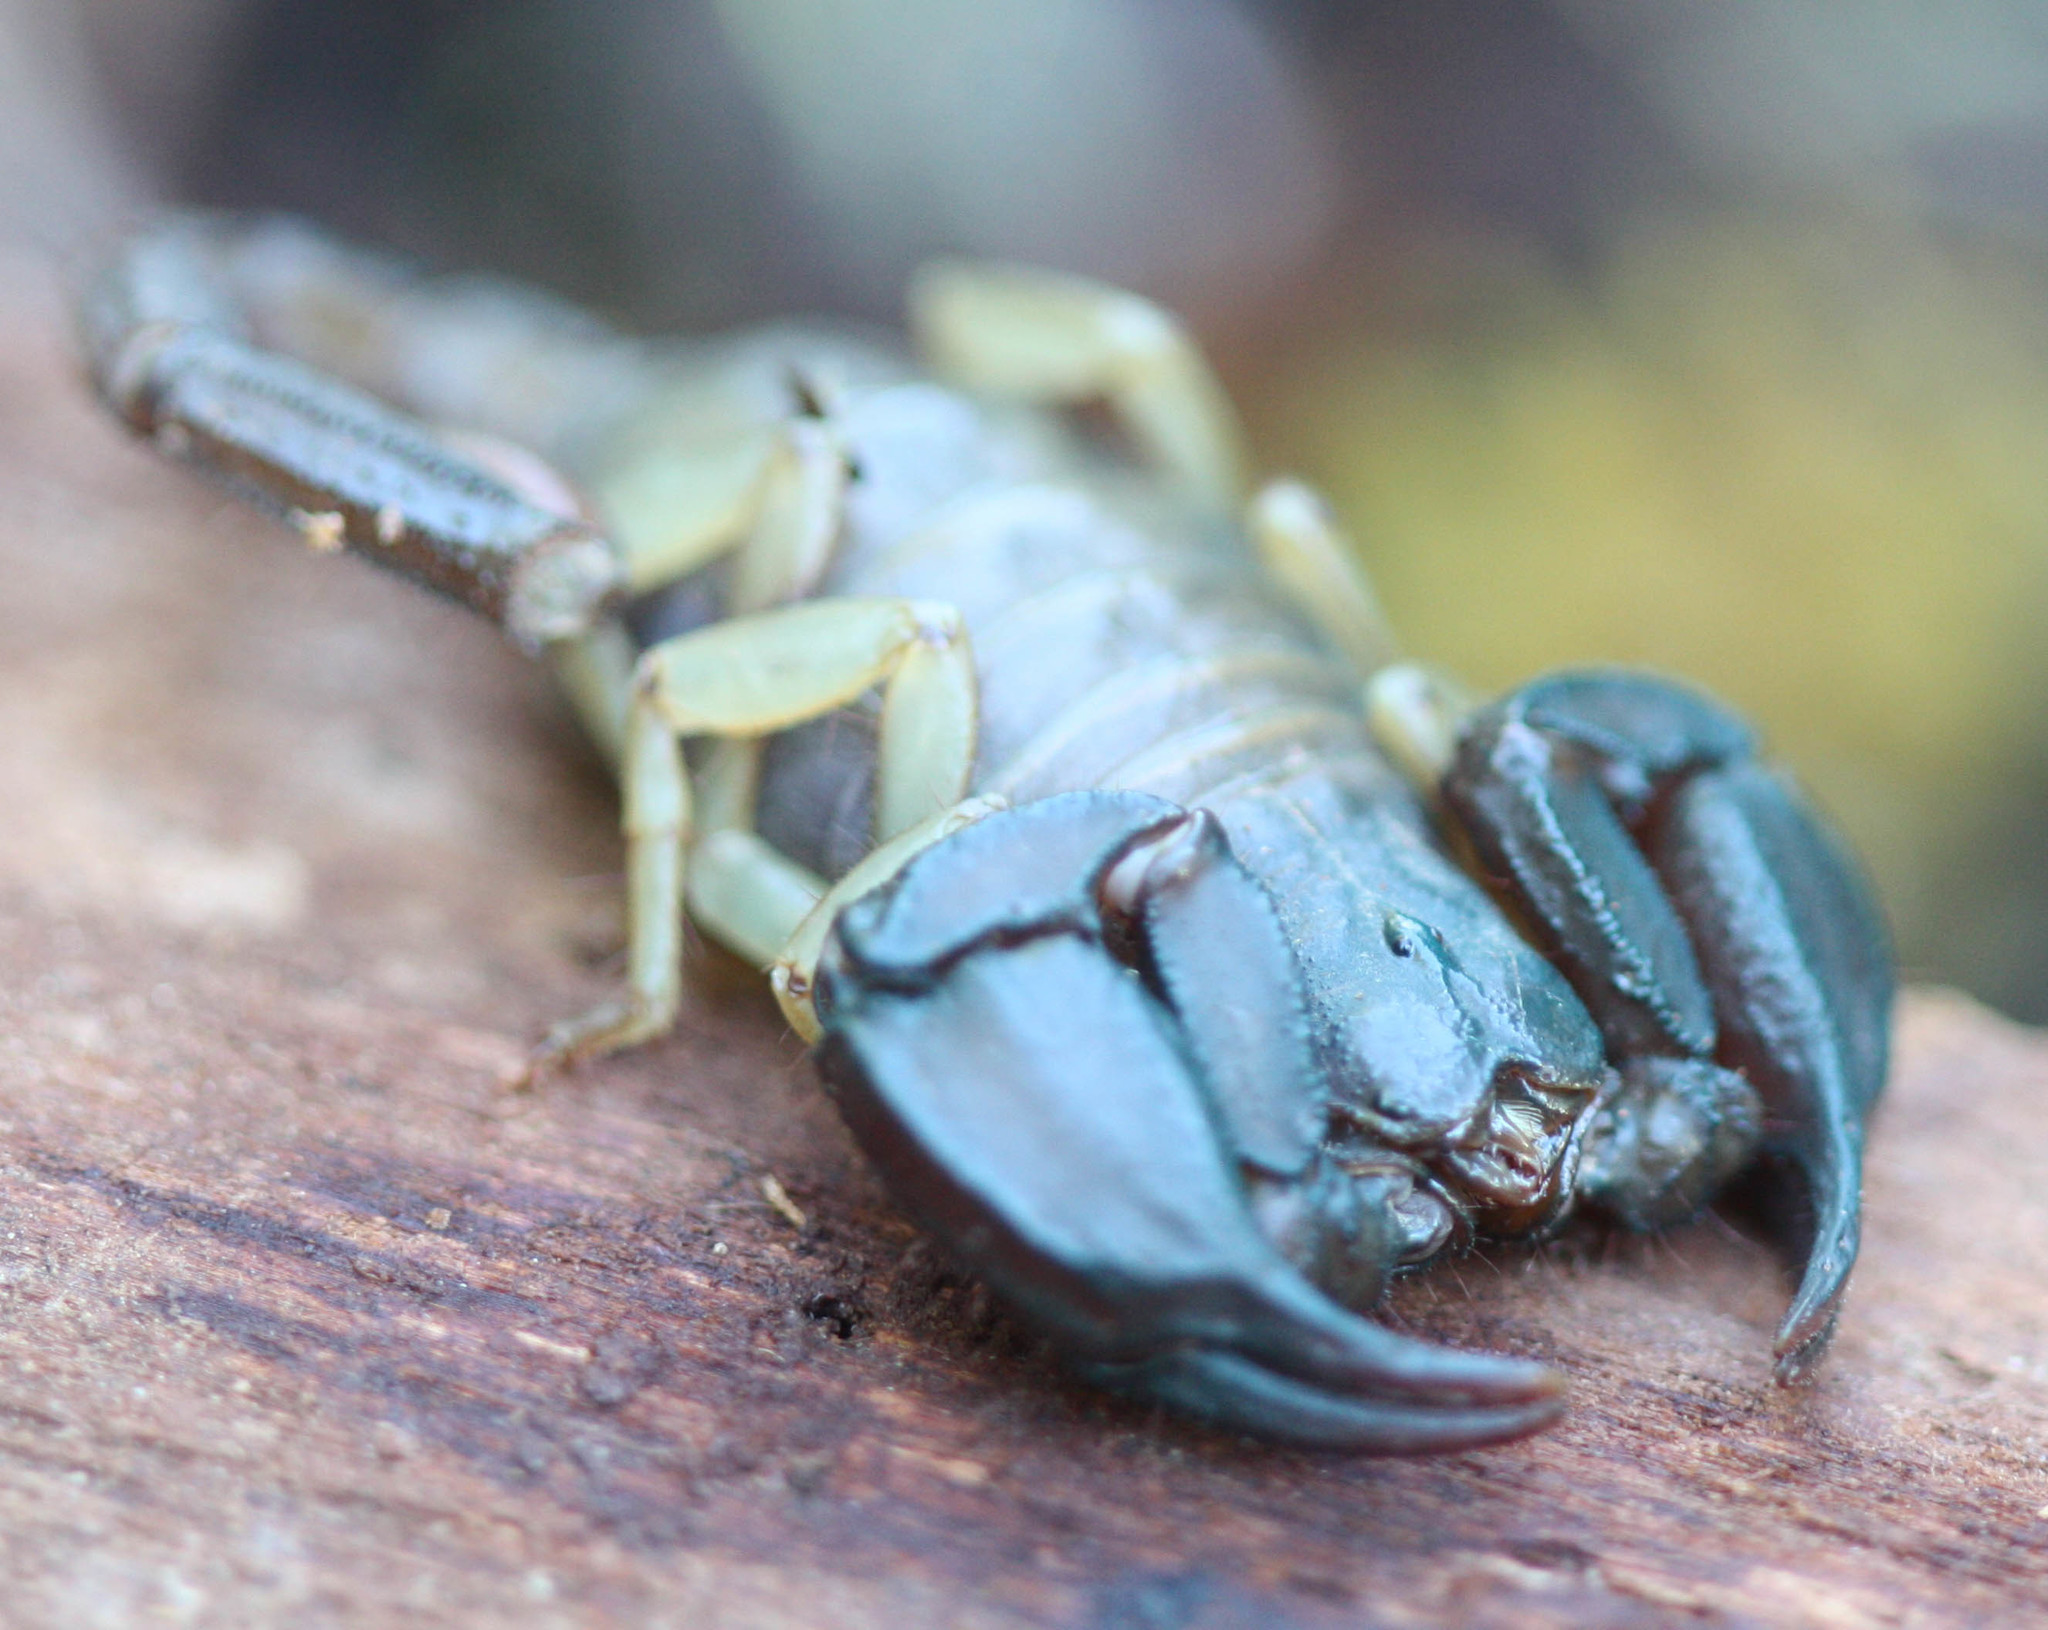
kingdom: Animalia
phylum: Arthropoda
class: Arachnida
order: Scorpiones
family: Chactidae
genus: Uroctonus
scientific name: Uroctonus mordax
